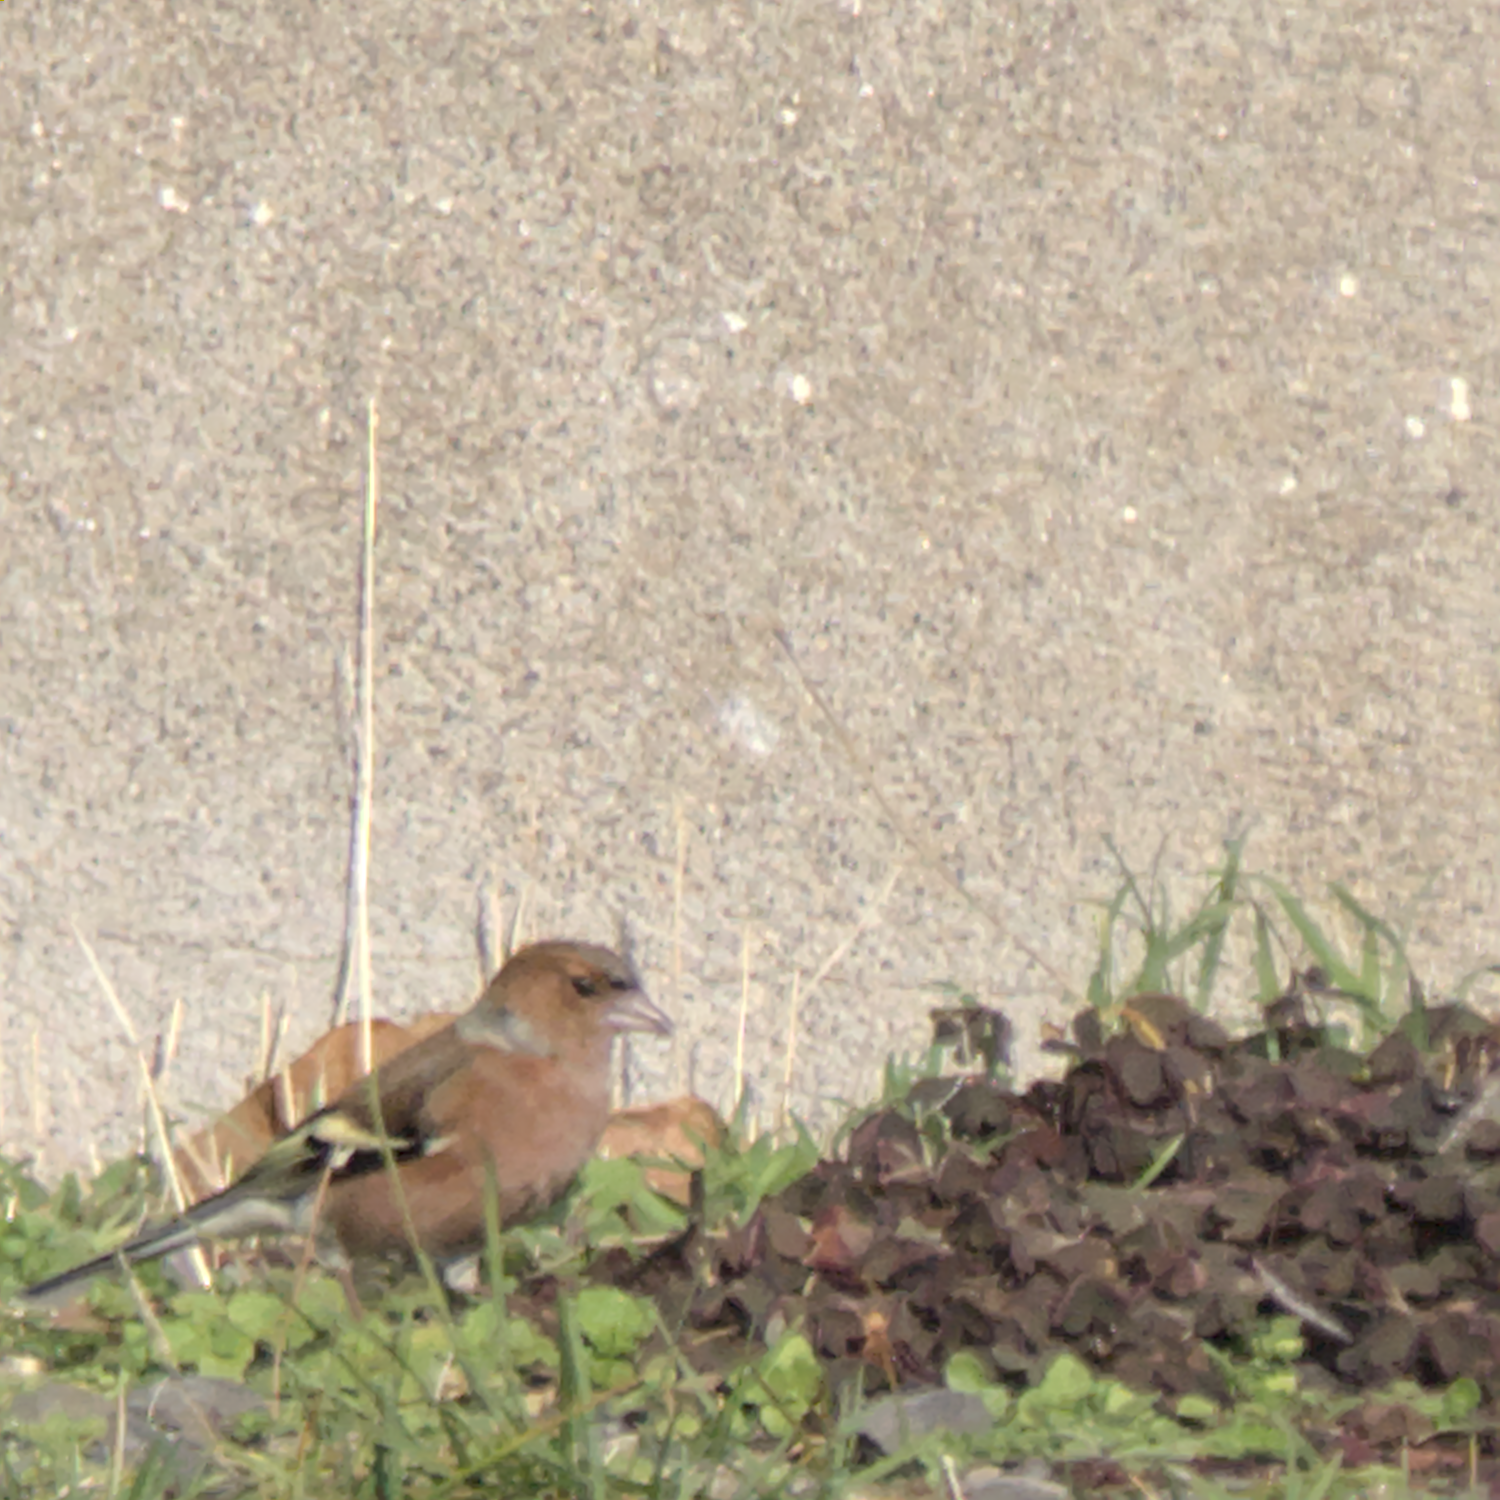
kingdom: Animalia
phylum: Chordata
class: Aves
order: Passeriformes
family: Fringillidae
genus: Fringilla
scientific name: Fringilla coelebs
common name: Common chaffinch
